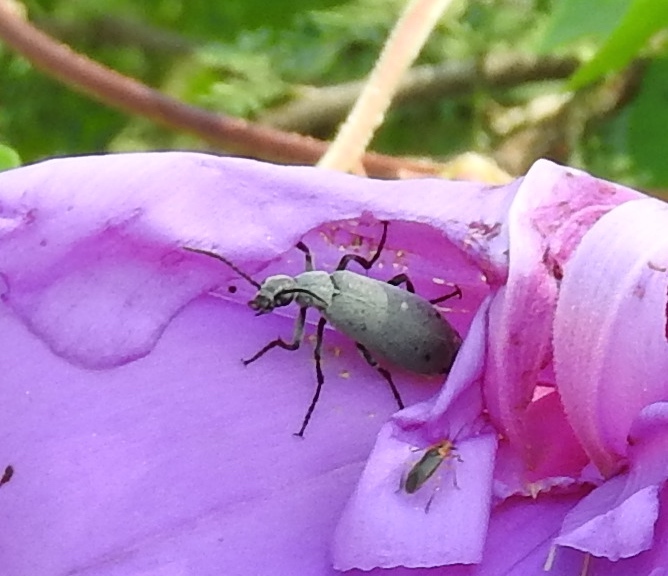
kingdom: Animalia
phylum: Arthropoda
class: Insecta
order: Coleoptera
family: Meloidae
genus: Epicauta
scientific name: Epicauta bipunctata
